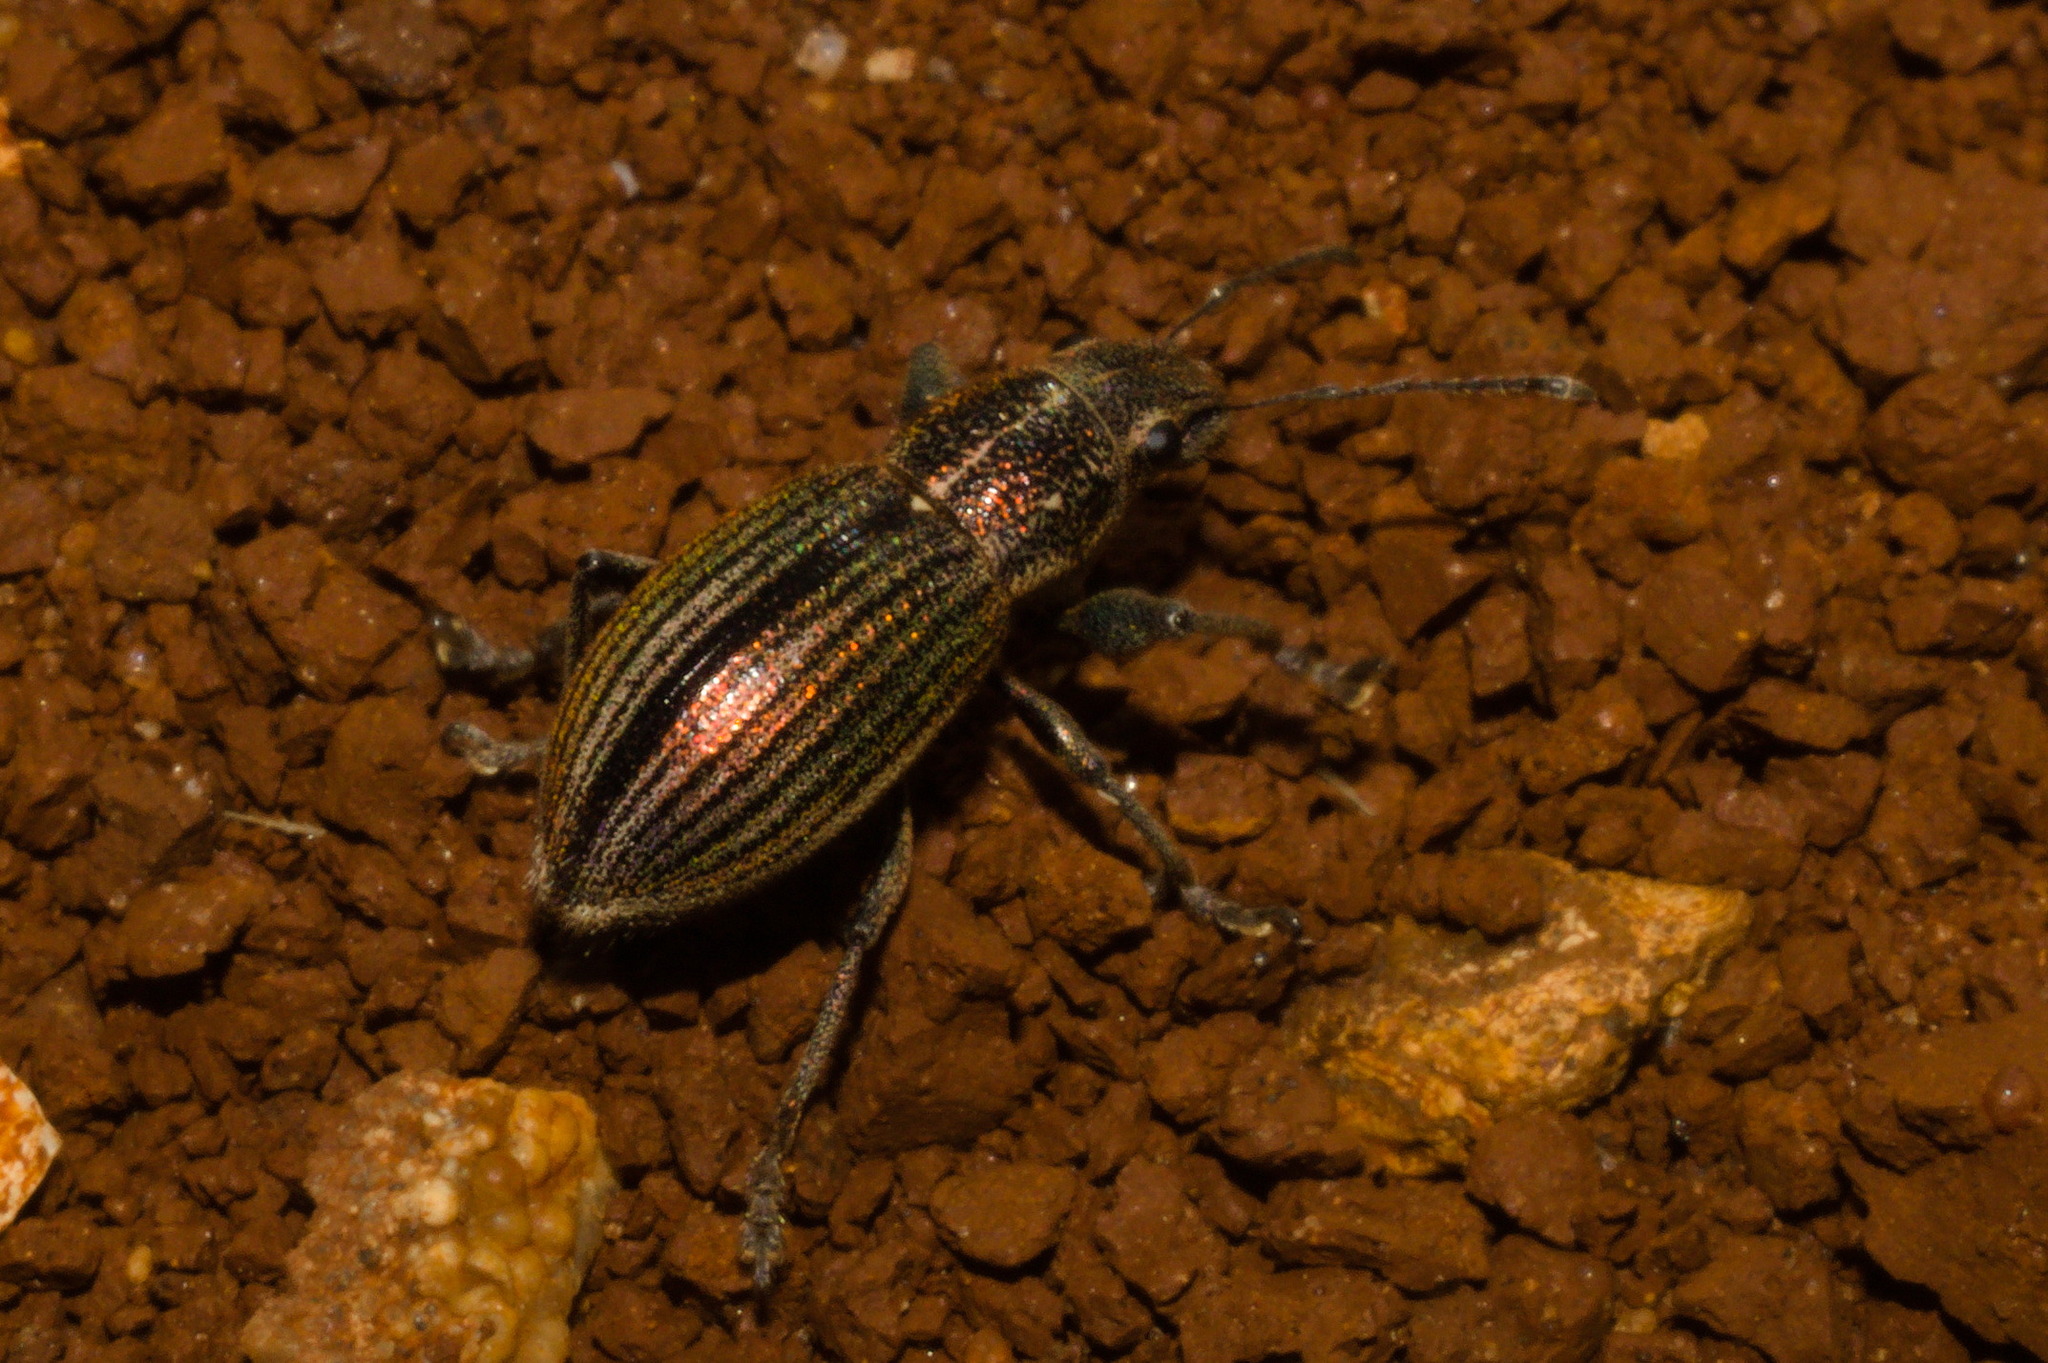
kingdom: Animalia
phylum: Arthropoda
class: Insecta
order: Coleoptera
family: Curculionidae
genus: Naupactus
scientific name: Naupactus tremolerasi
